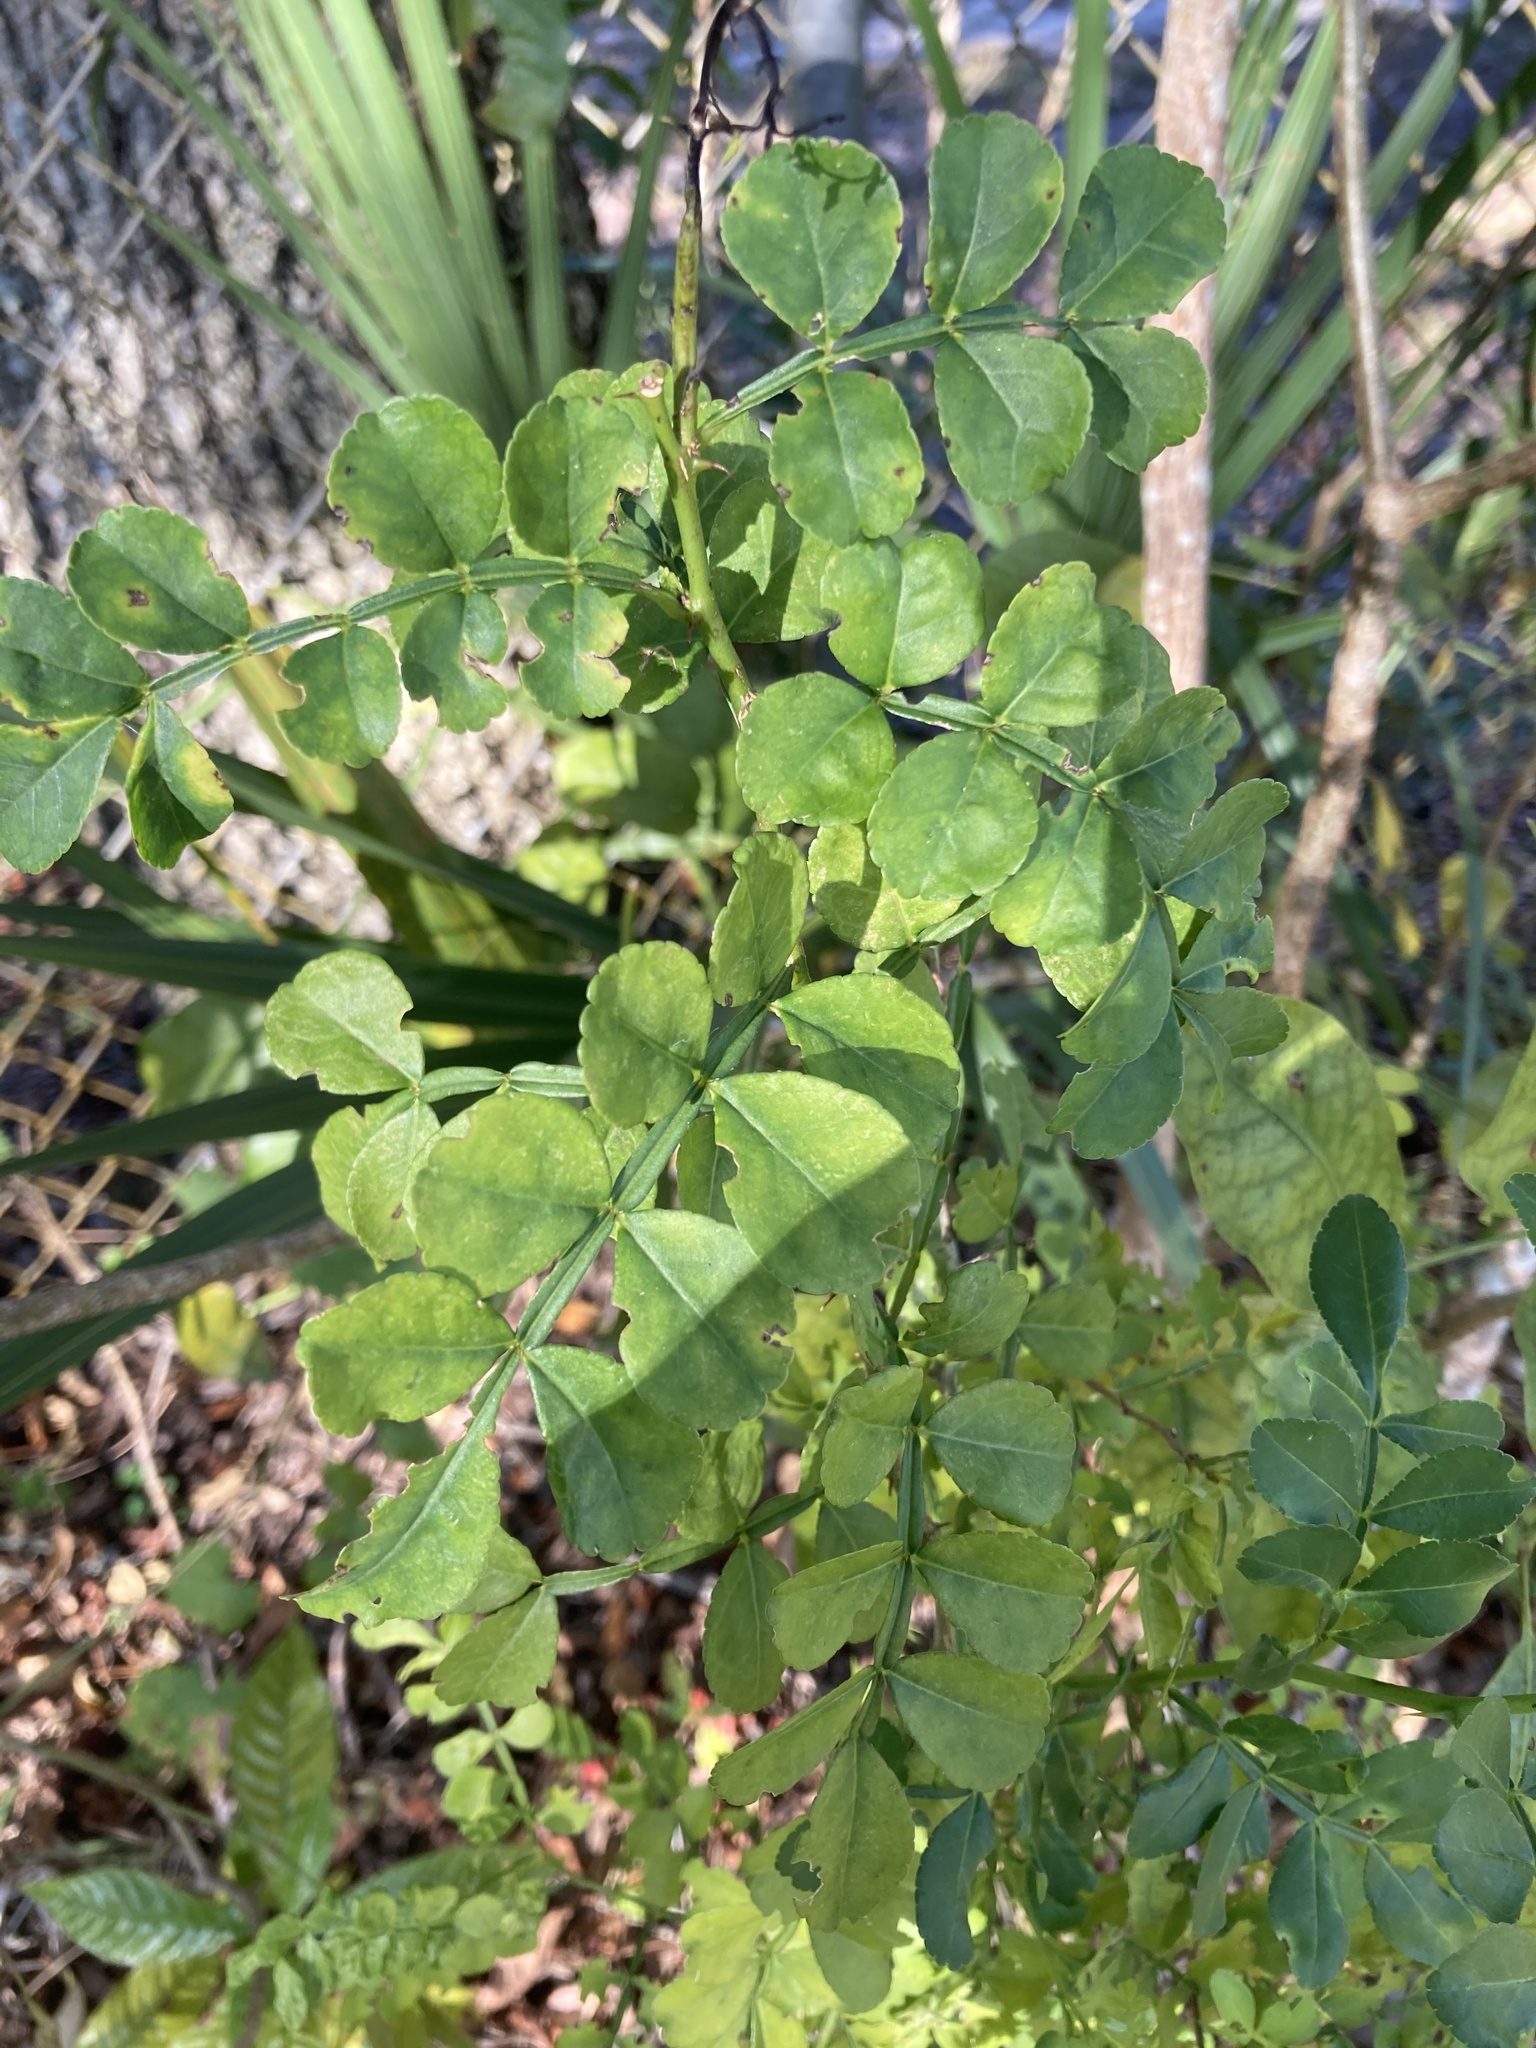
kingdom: Plantae
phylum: Tracheophyta
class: Magnoliopsida
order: Sapindales
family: Rutaceae
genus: Zanthoxylum
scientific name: Zanthoxylum fagara
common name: Lime prickly-ash
